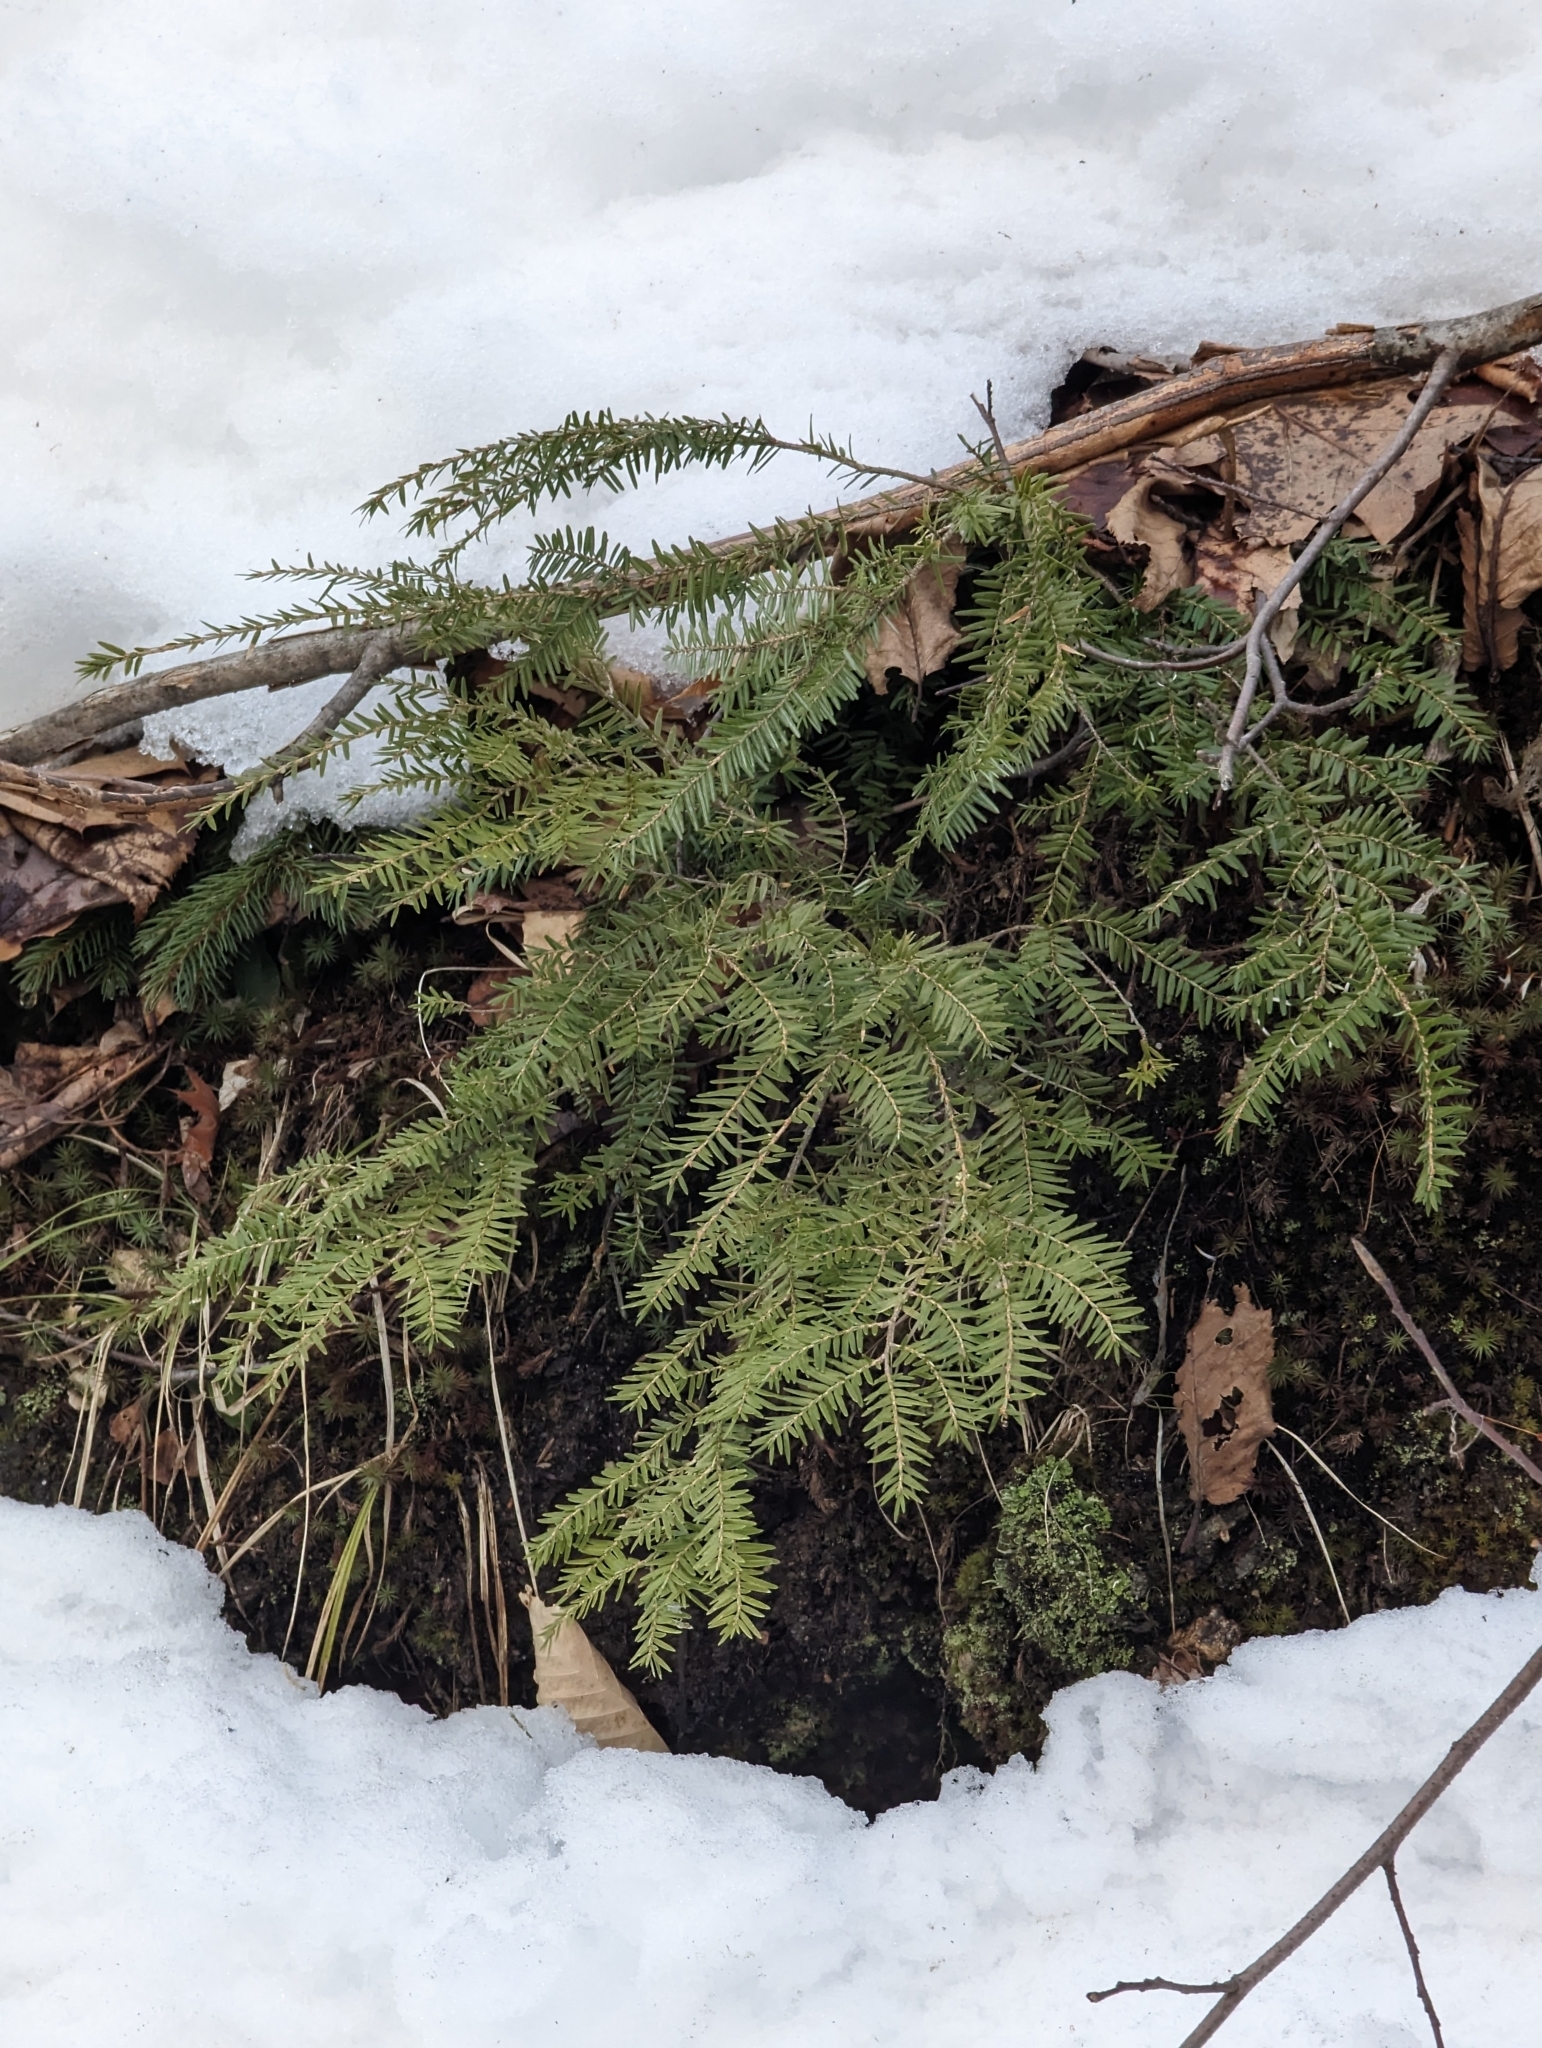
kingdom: Plantae
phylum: Tracheophyta
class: Pinopsida
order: Pinales
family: Pinaceae
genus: Tsuga
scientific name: Tsuga canadensis
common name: Eastern hemlock
